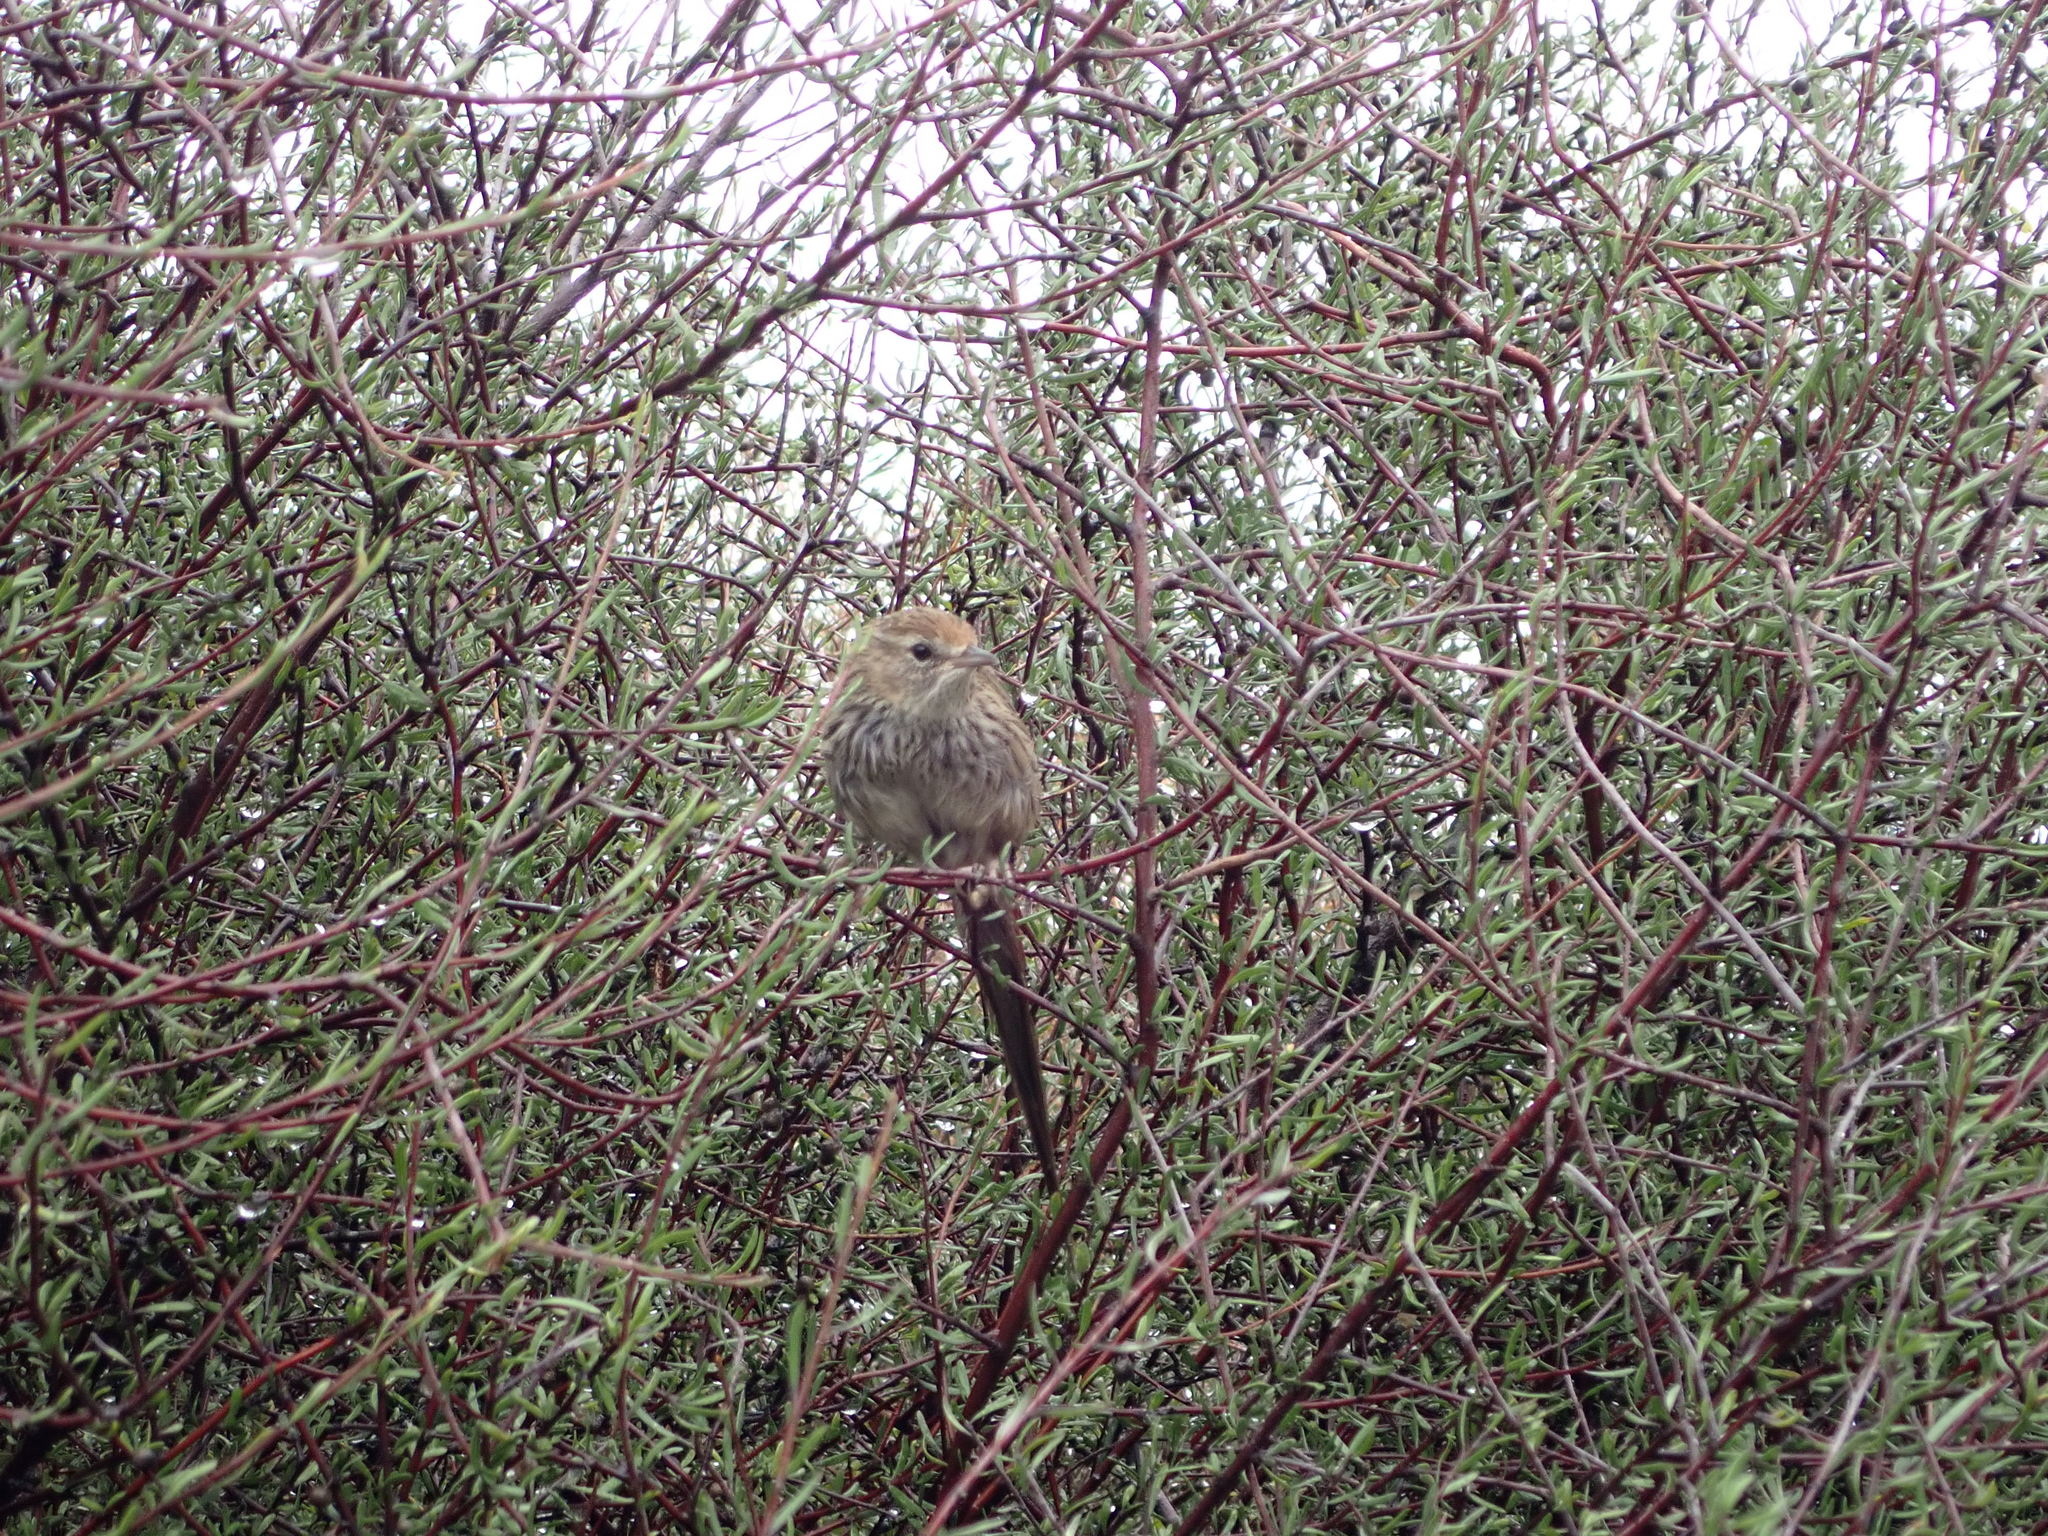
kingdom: Animalia
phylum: Chordata
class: Aves
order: Passeriformes
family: Locustellidae
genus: Megalurus
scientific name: Megalurus punctatus
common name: New zealand fernbird
